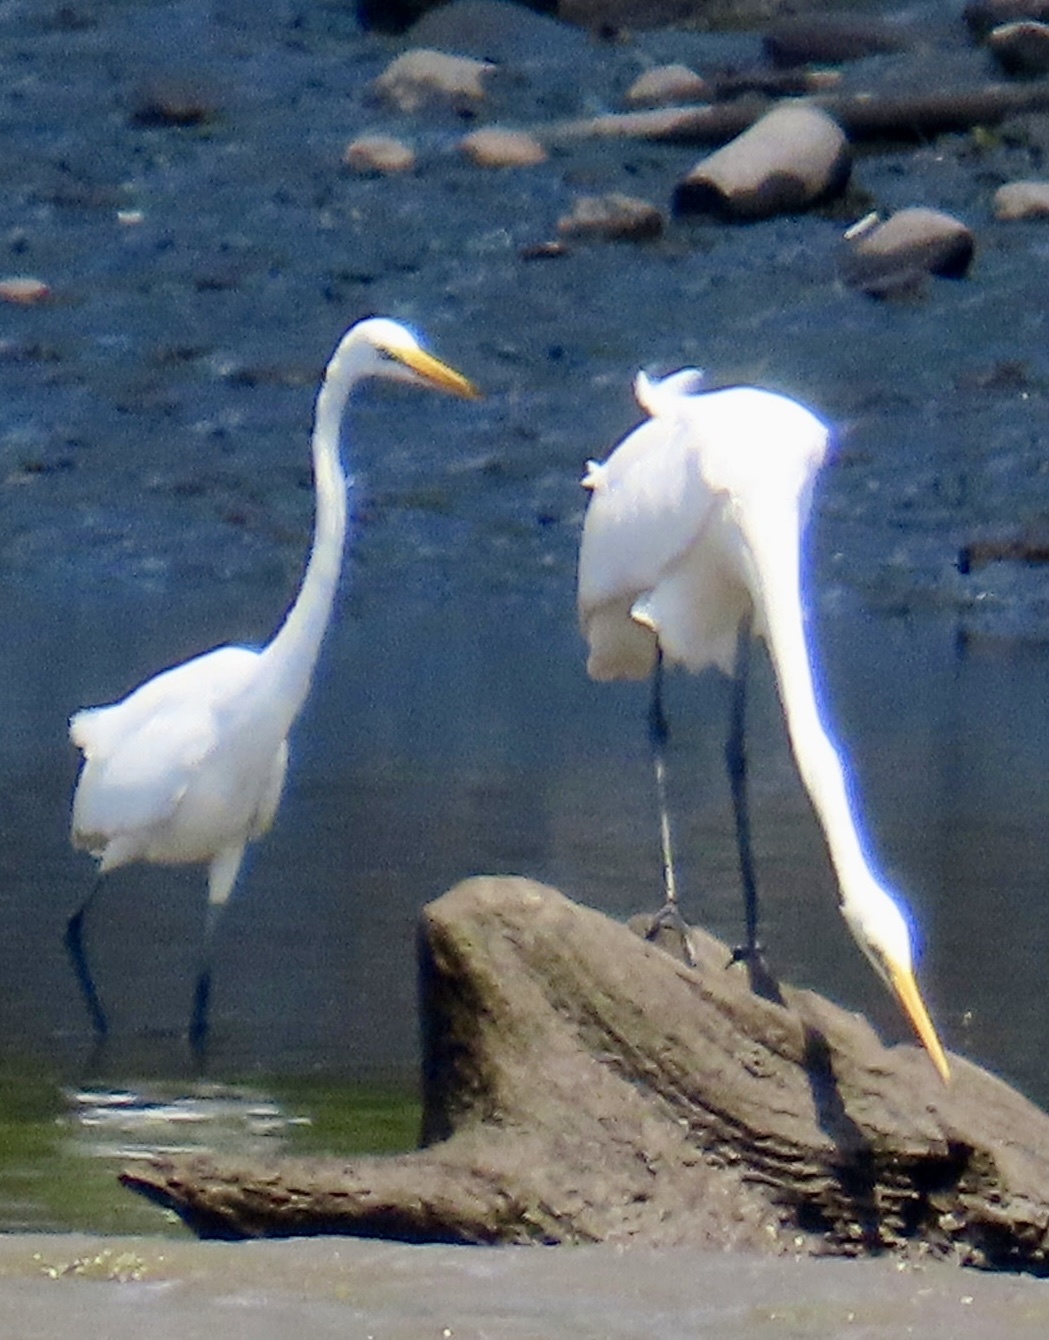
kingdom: Animalia
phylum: Chordata
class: Aves
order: Pelecaniformes
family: Ardeidae
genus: Ardea
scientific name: Ardea alba
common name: Great egret
